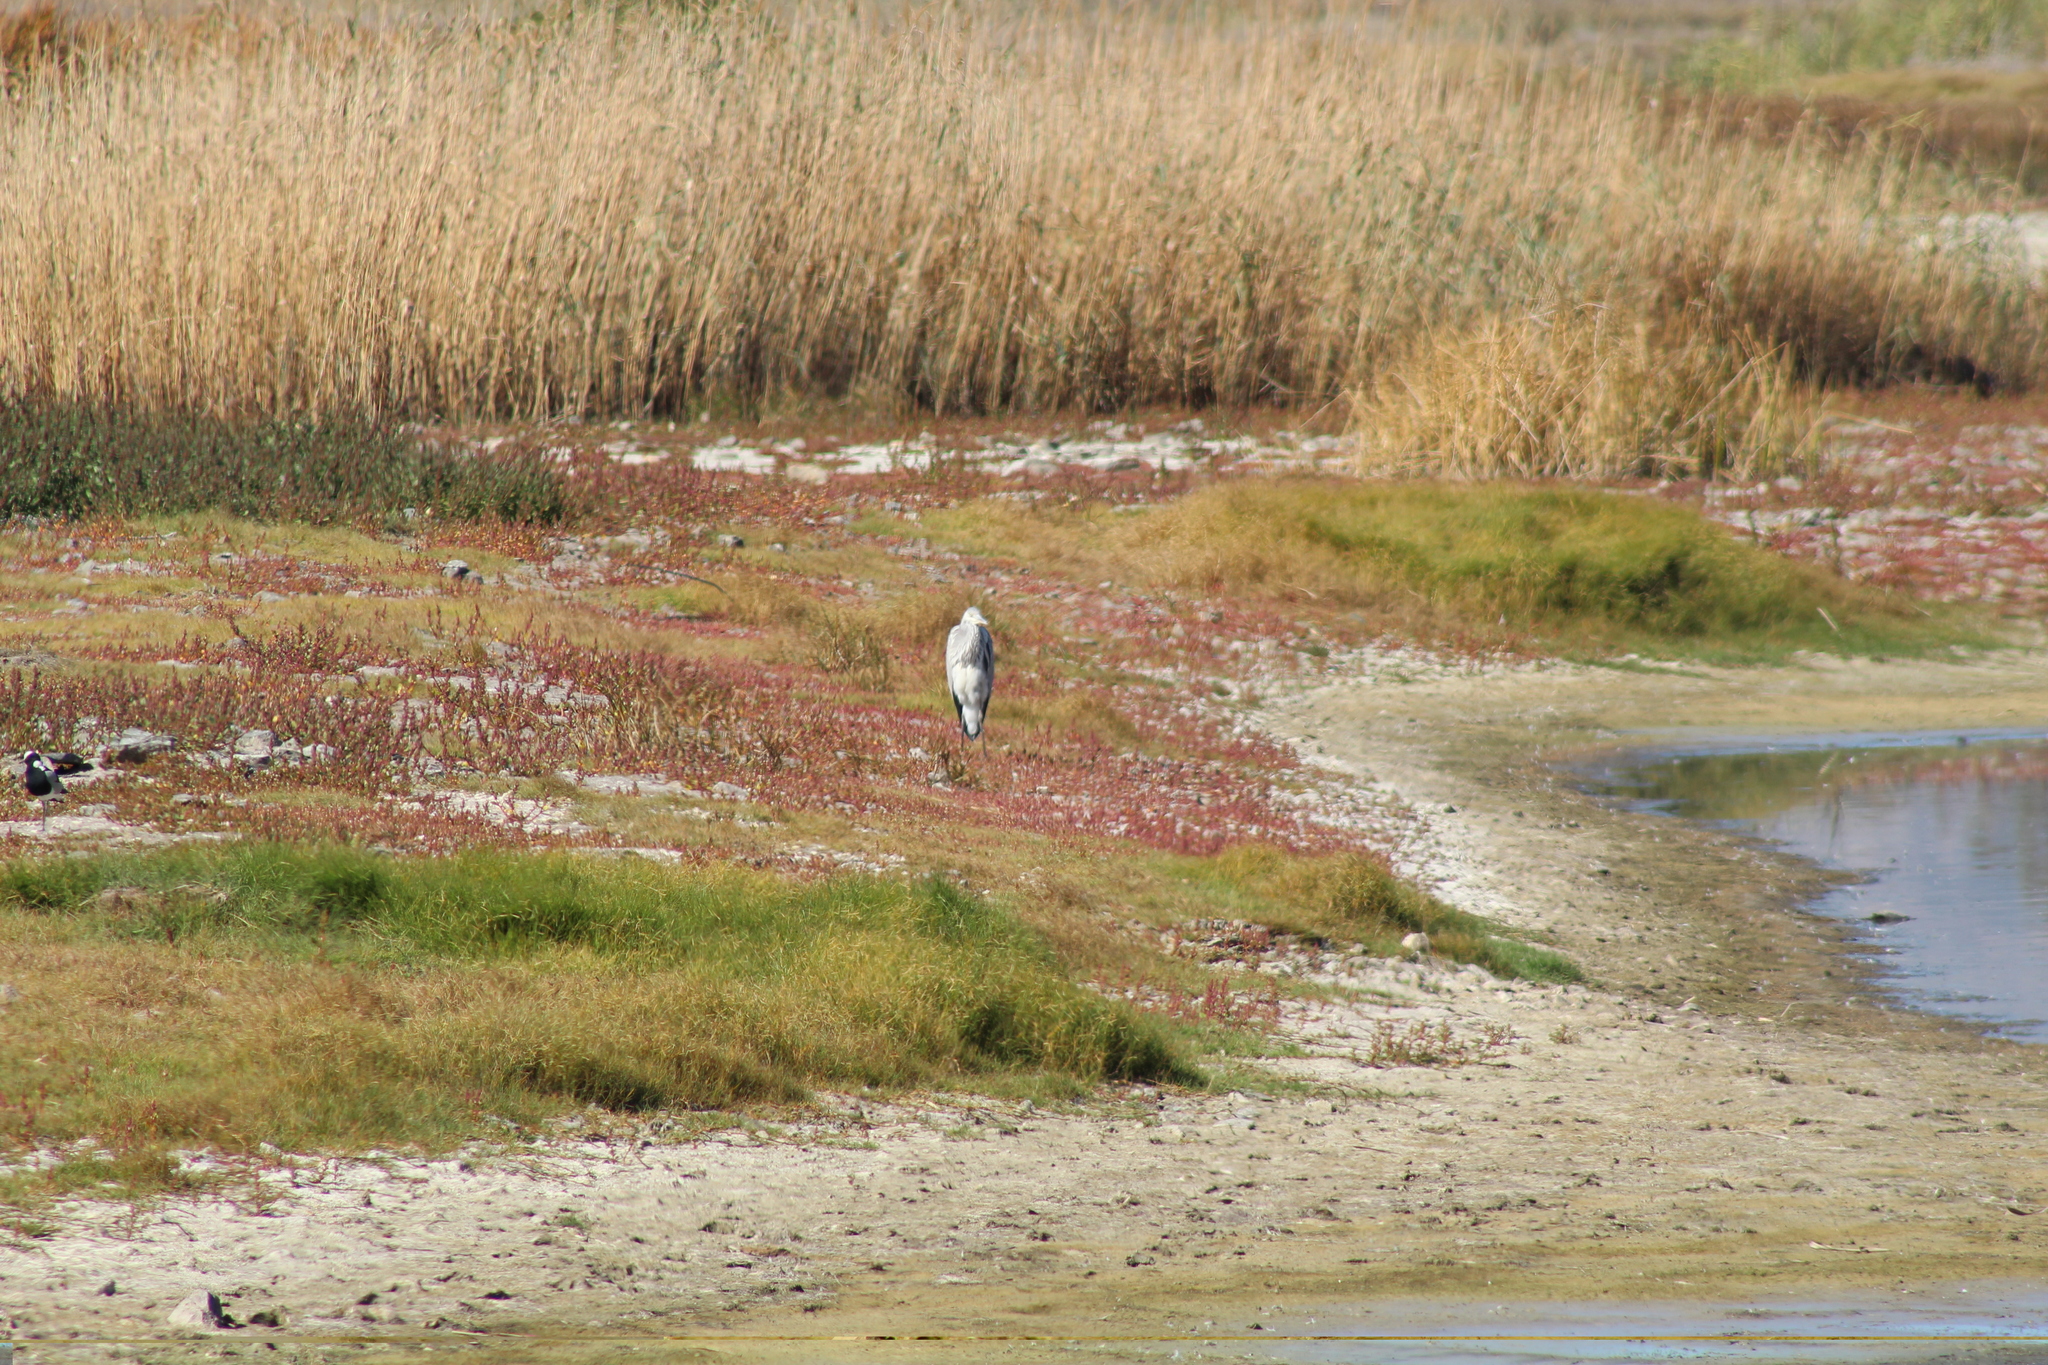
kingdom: Animalia
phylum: Chordata
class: Aves
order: Pelecaniformes
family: Ardeidae
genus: Ardea
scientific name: Ardea cinerea
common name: Grey heron
